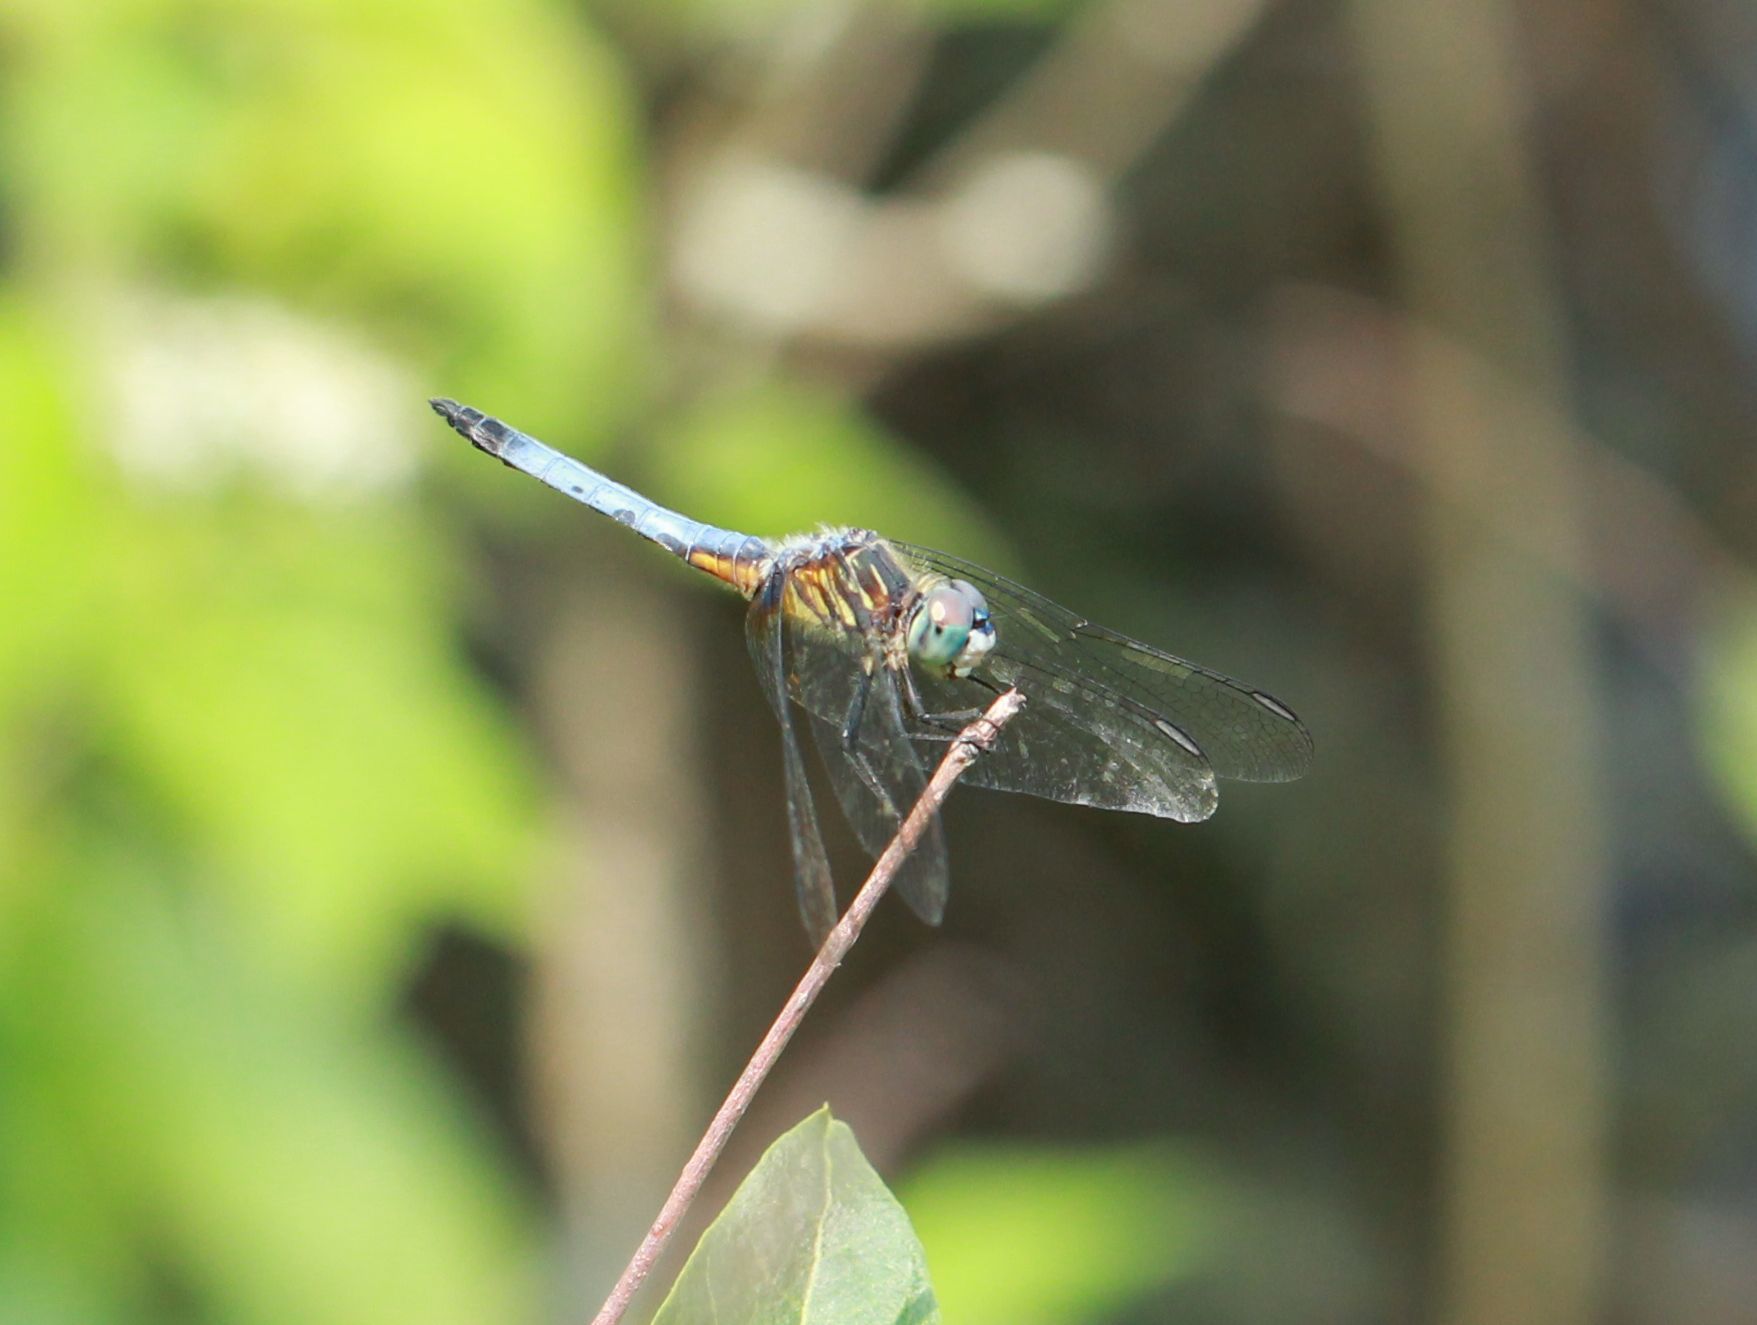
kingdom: Animalia
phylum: Arthropoda
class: Insecta
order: Odonata
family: Libellulidae
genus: Pachydiplax
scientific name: Pachydiplax longipennis
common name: Blue dasher
